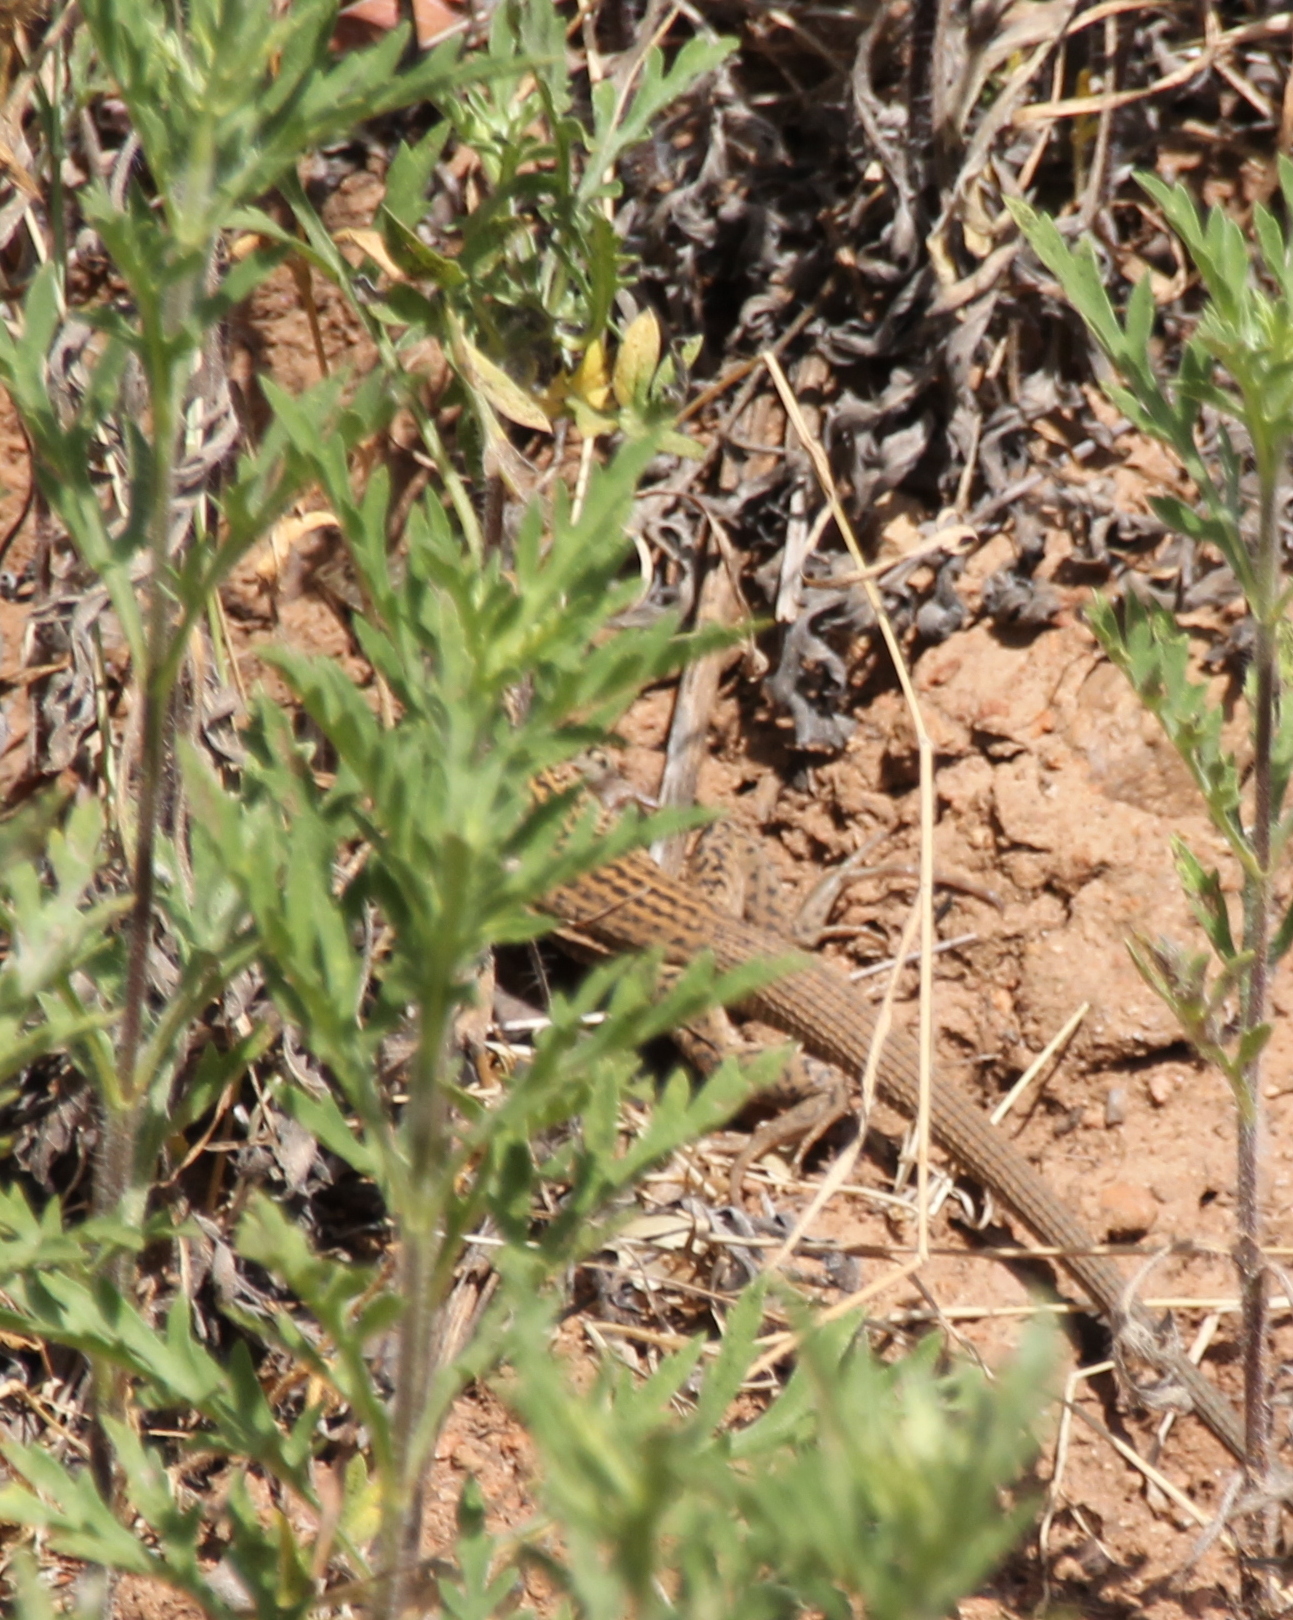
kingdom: Animalia
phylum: Chordata
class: Squamata
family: Teiidae
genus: Aspidoscelis
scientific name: Aspidoscelis tigris
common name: Tiger whiptail
